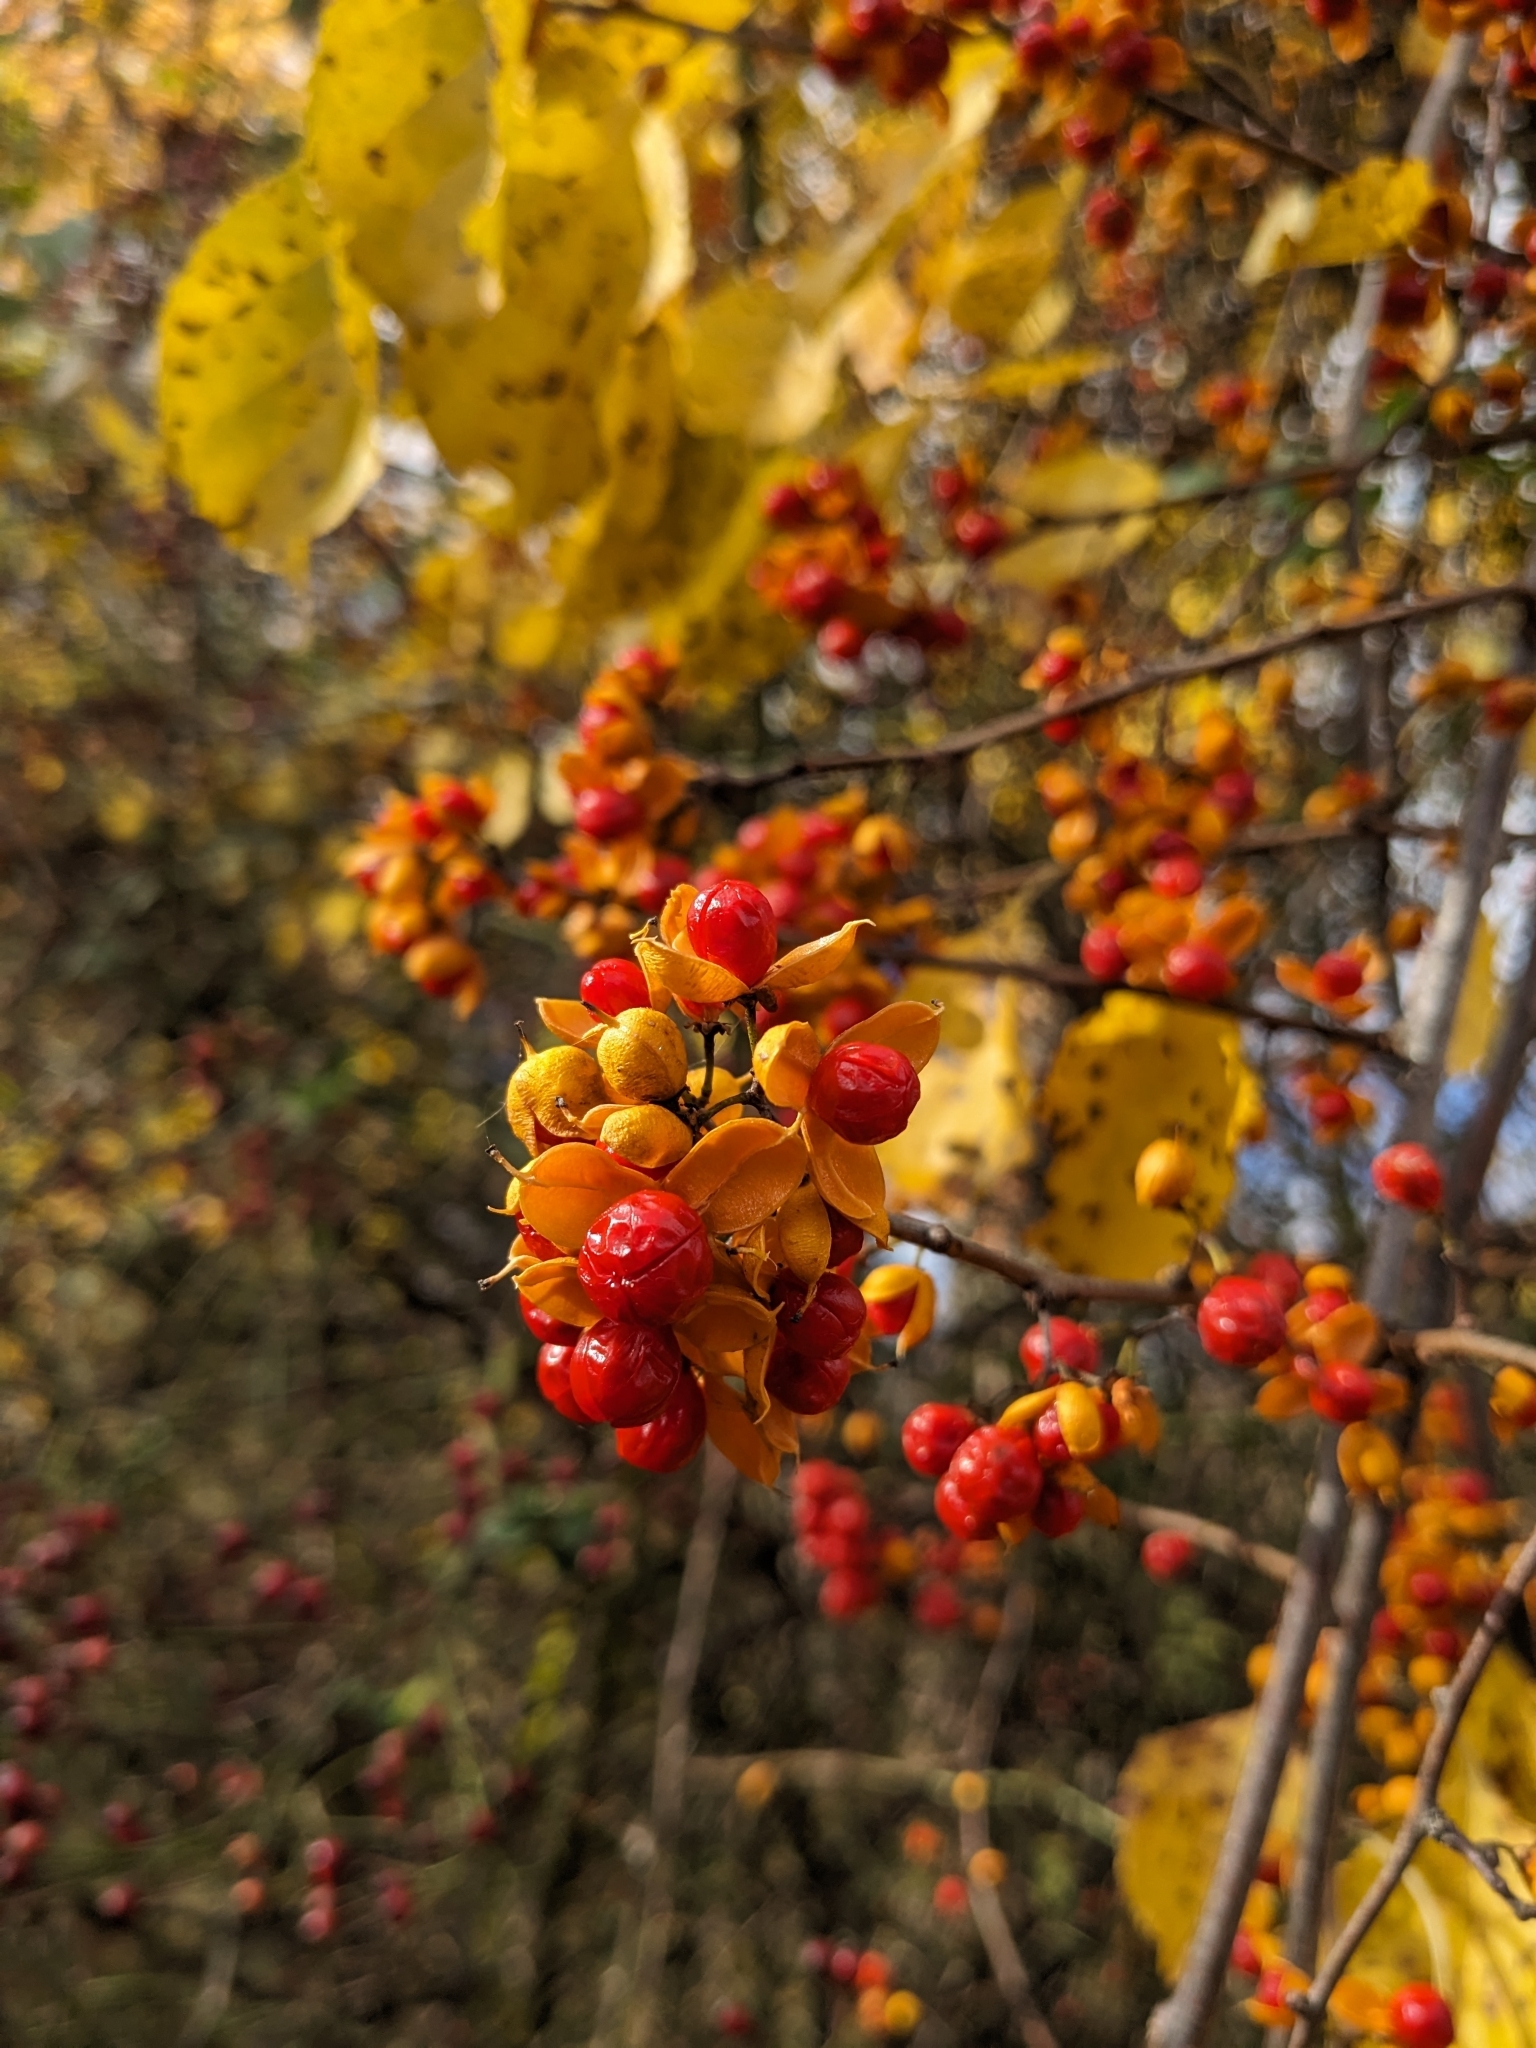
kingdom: Plantae
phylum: Tracheophyta
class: Magnoliopsida
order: Celastrales
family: Celastraceae
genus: Celastrus
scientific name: Celastrus orbiculatus
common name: Oriental bittersweet
